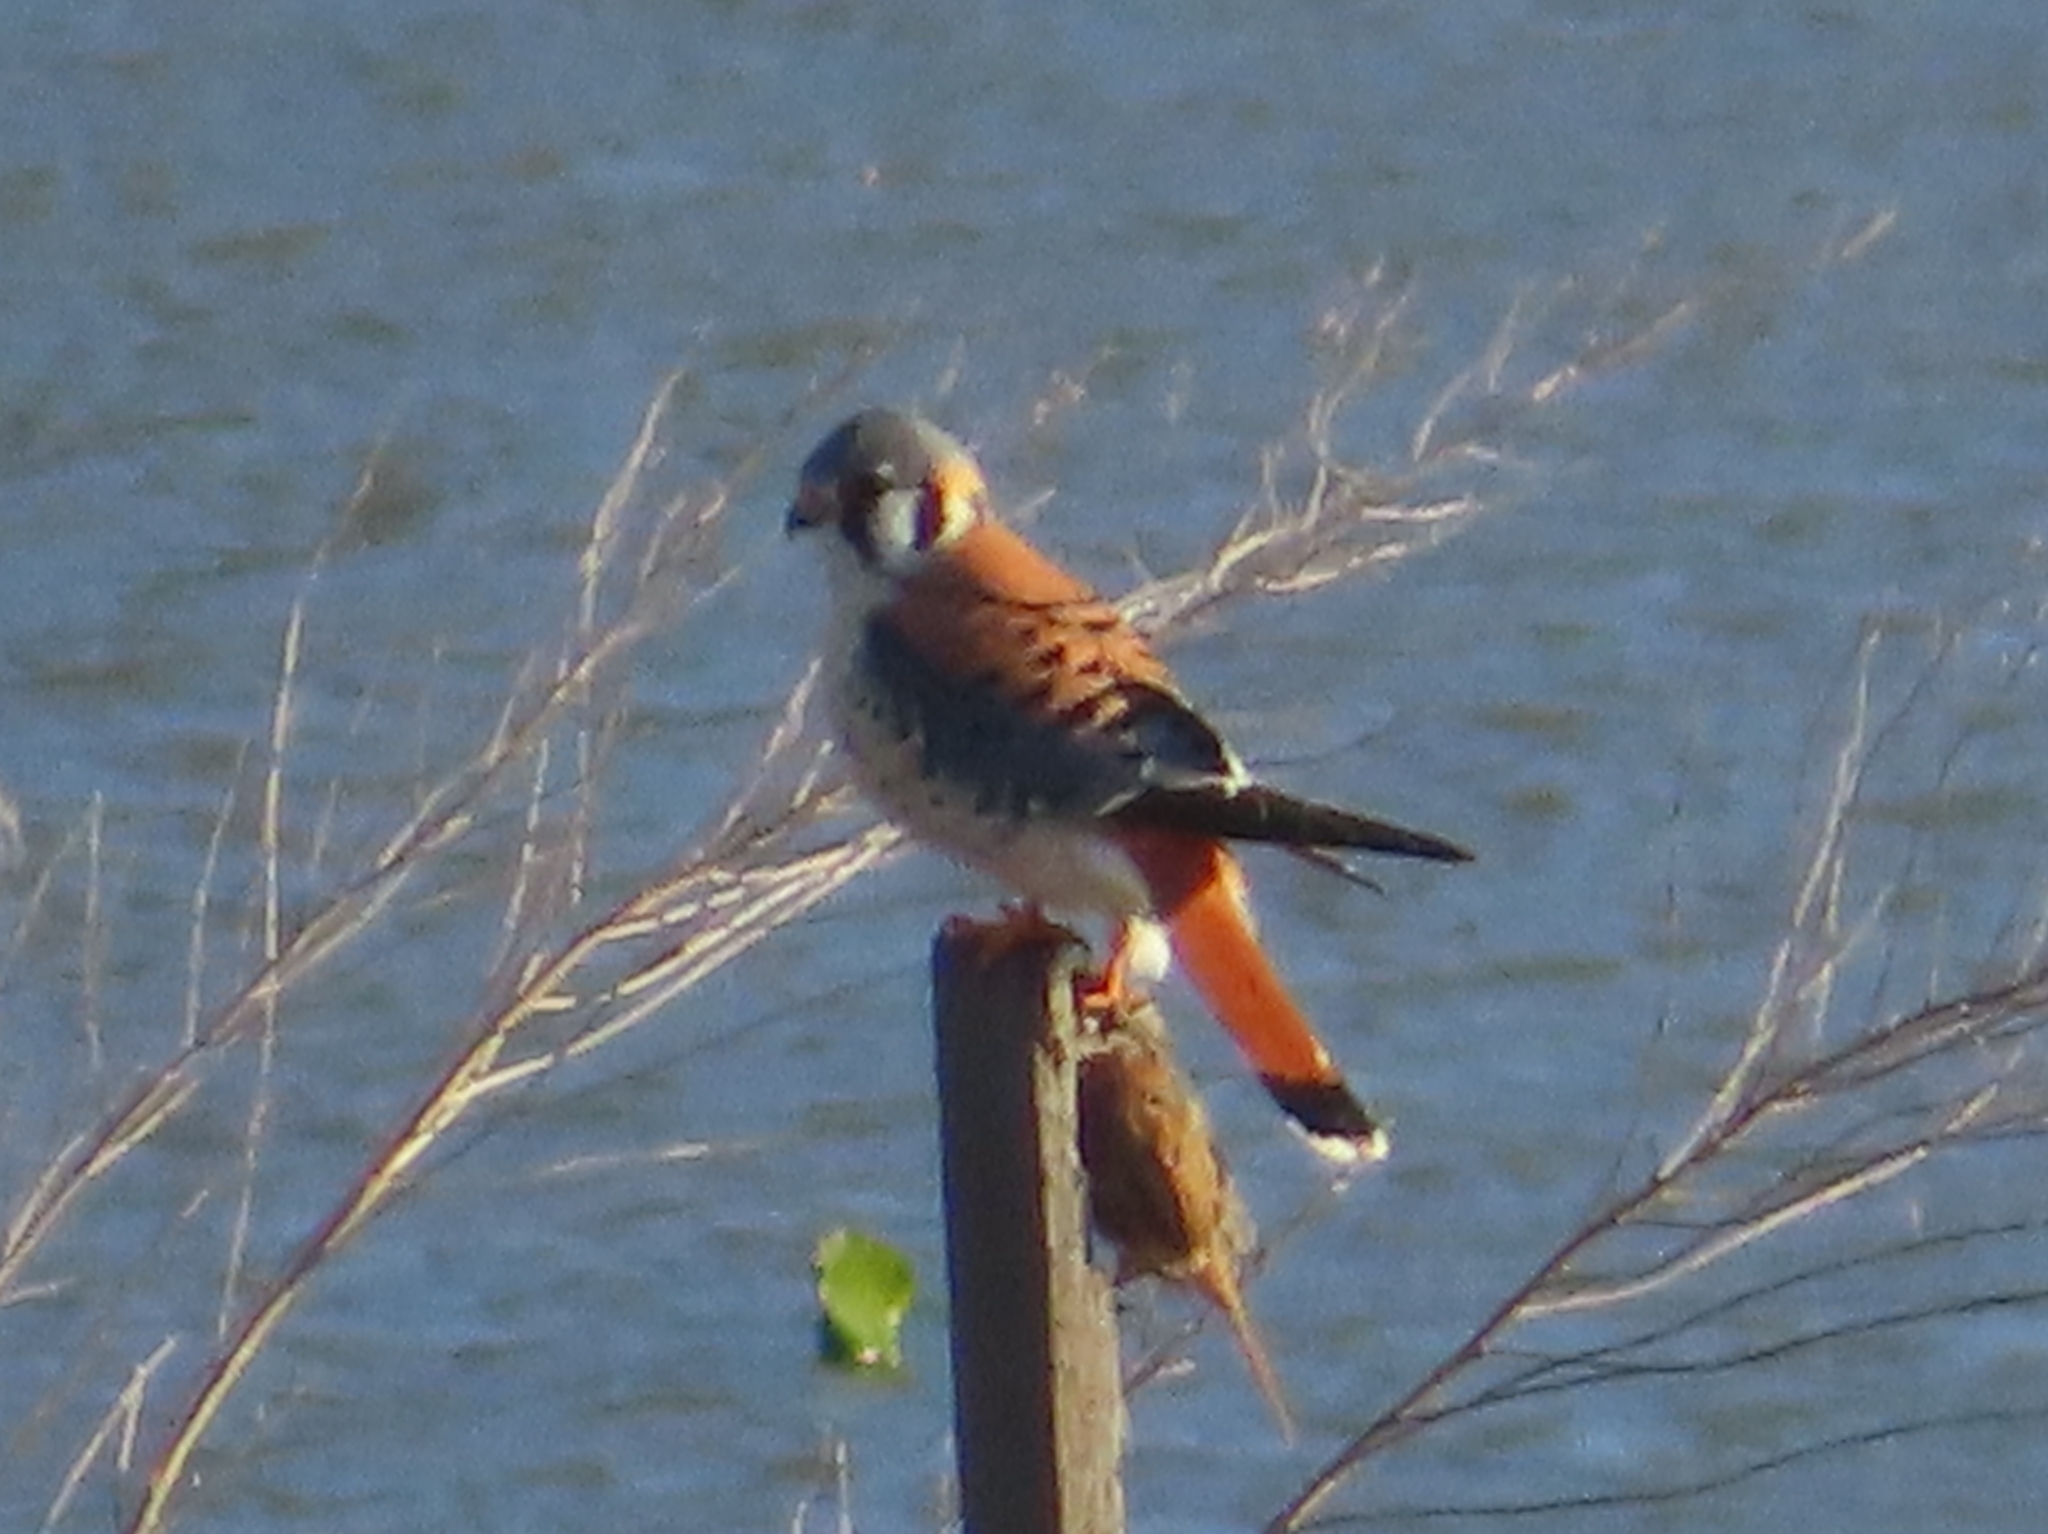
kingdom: Animalia
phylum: Chordata
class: Aves
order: Falconiformes
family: Falconidae
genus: Falco
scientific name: Falco sparverius
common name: American kestrel
